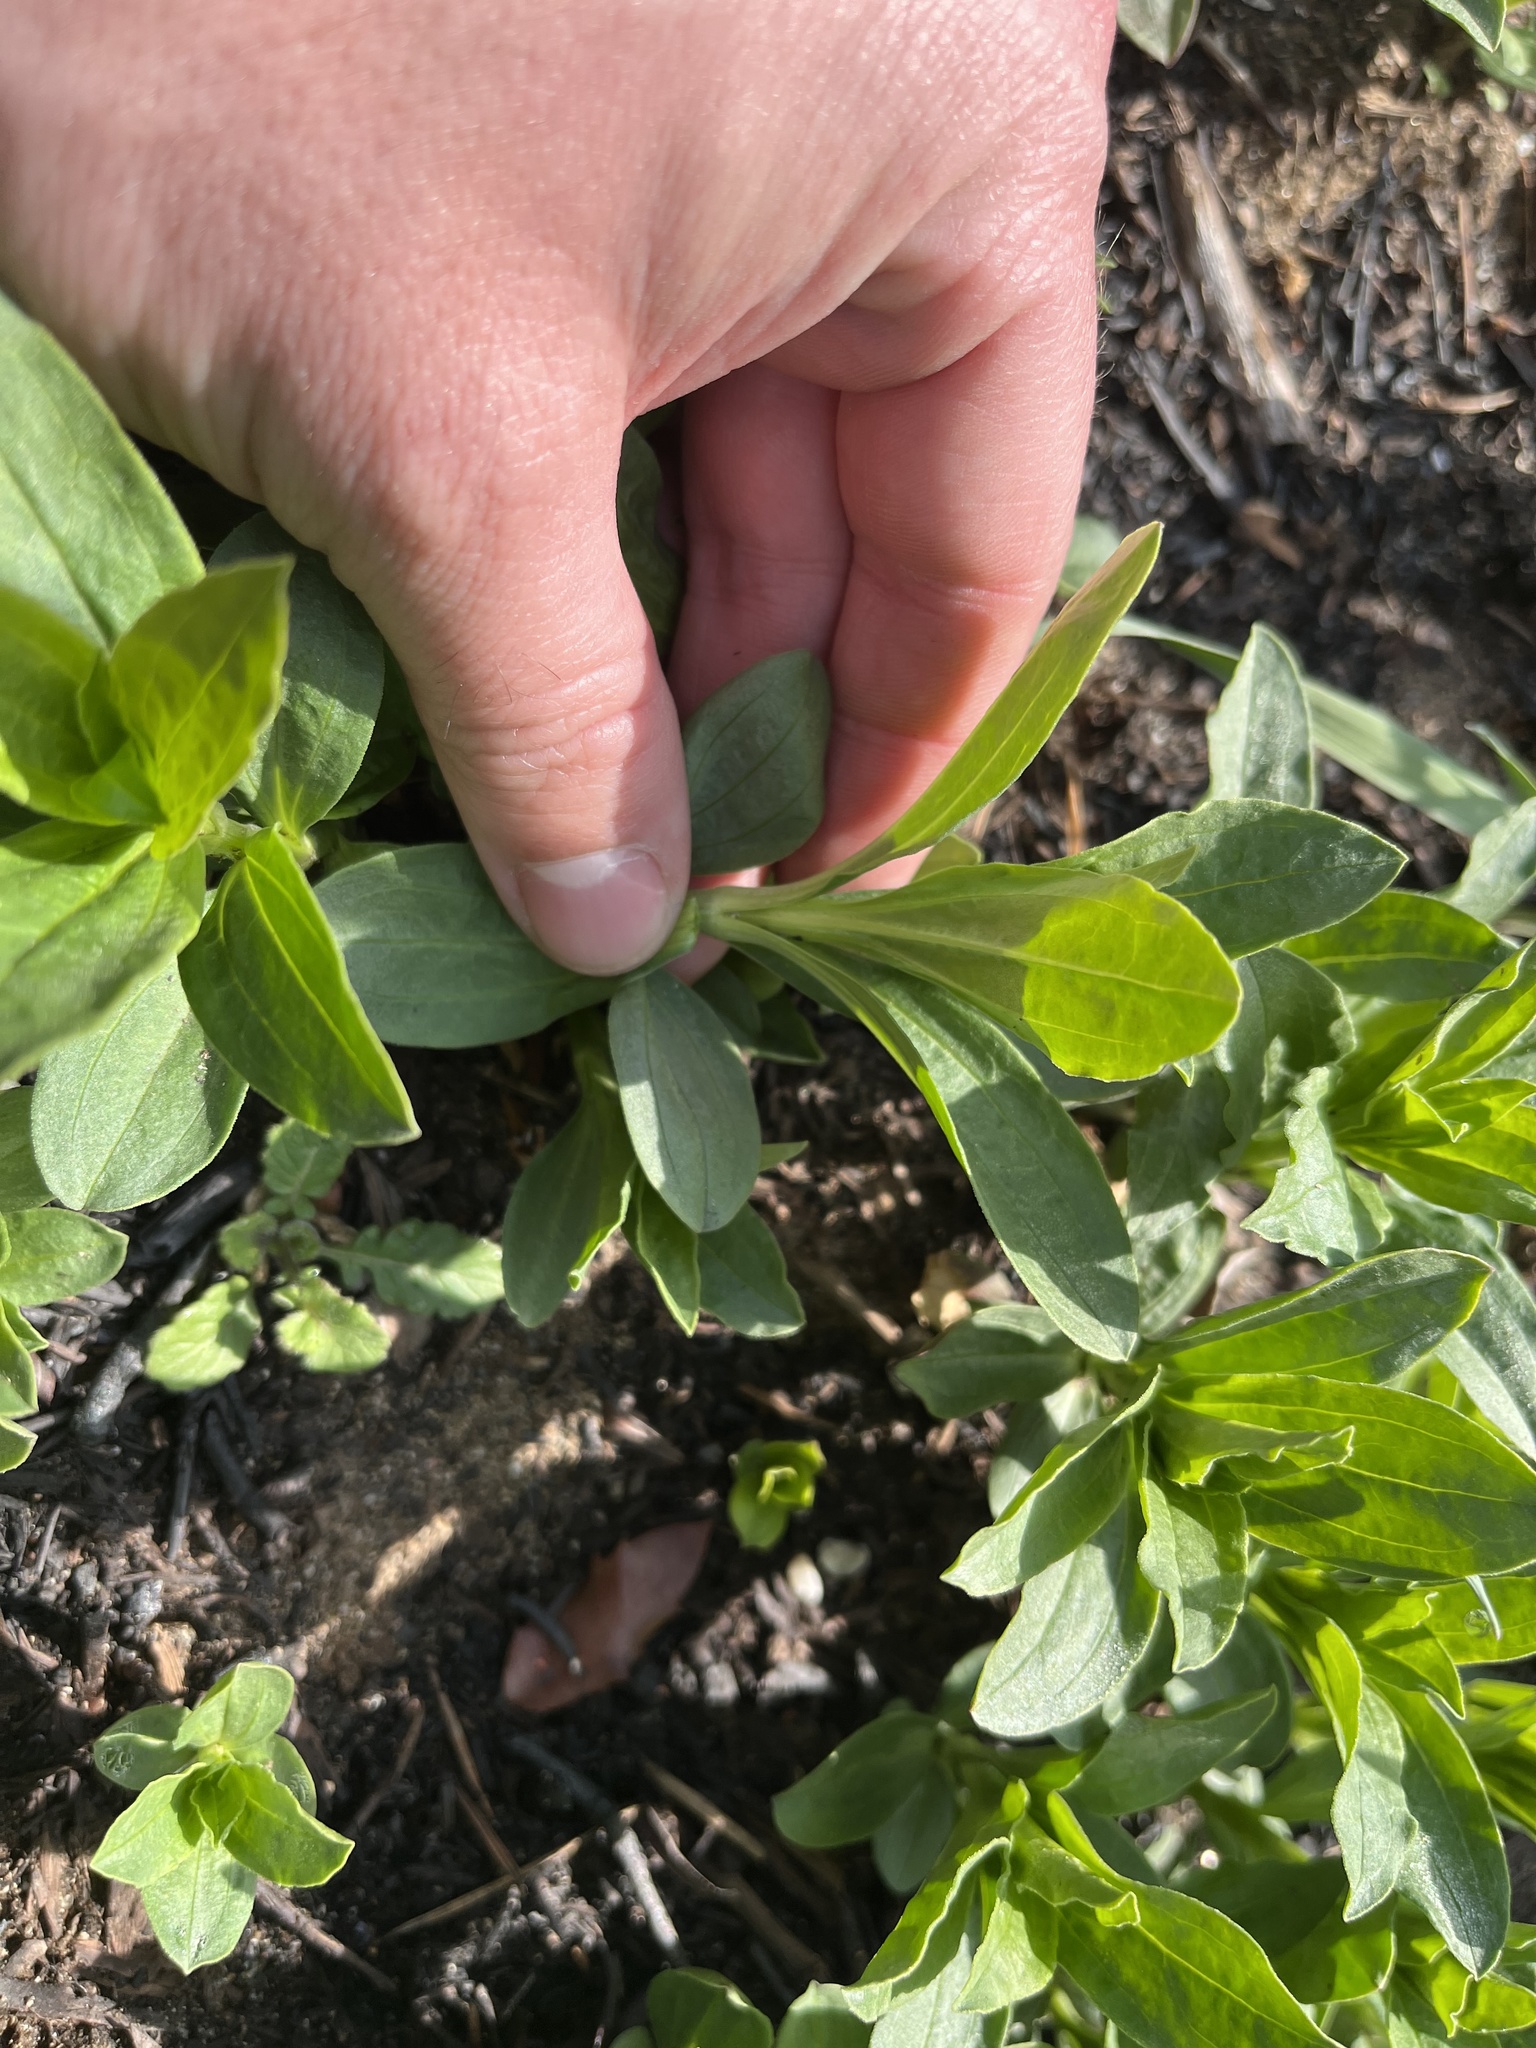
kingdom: Plantae
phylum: Tracheophyta
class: Magnoliopsida
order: Caryophyllales
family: Caryophyllaceae
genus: Saponaria
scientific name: Saponaria officinalis
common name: Soapwort
